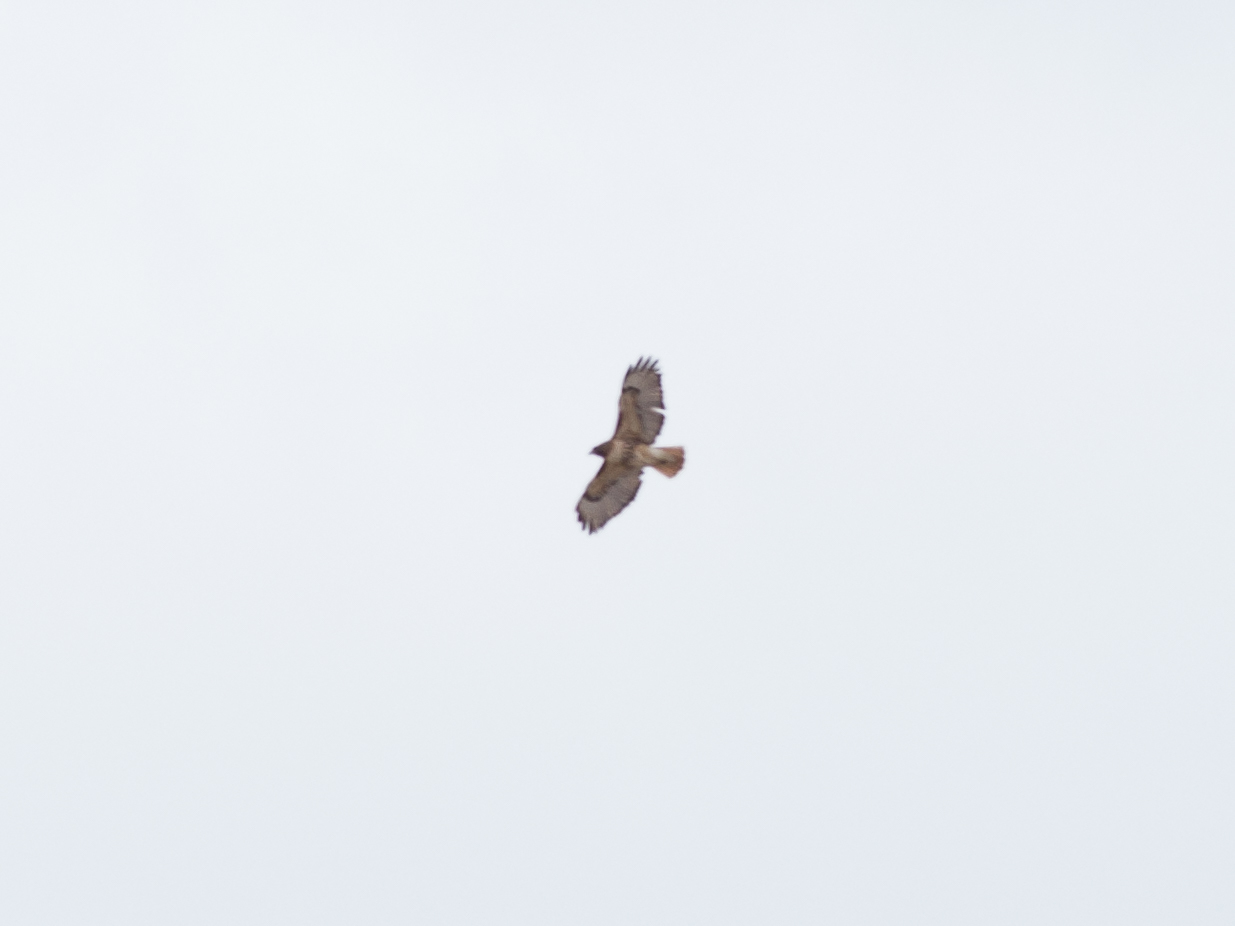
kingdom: Animalia
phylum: Chordata
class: Aves
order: Accipitriformes
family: Accipitridae
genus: Buteo
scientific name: Buteo jamaicensis
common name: Red-tailed hawk
